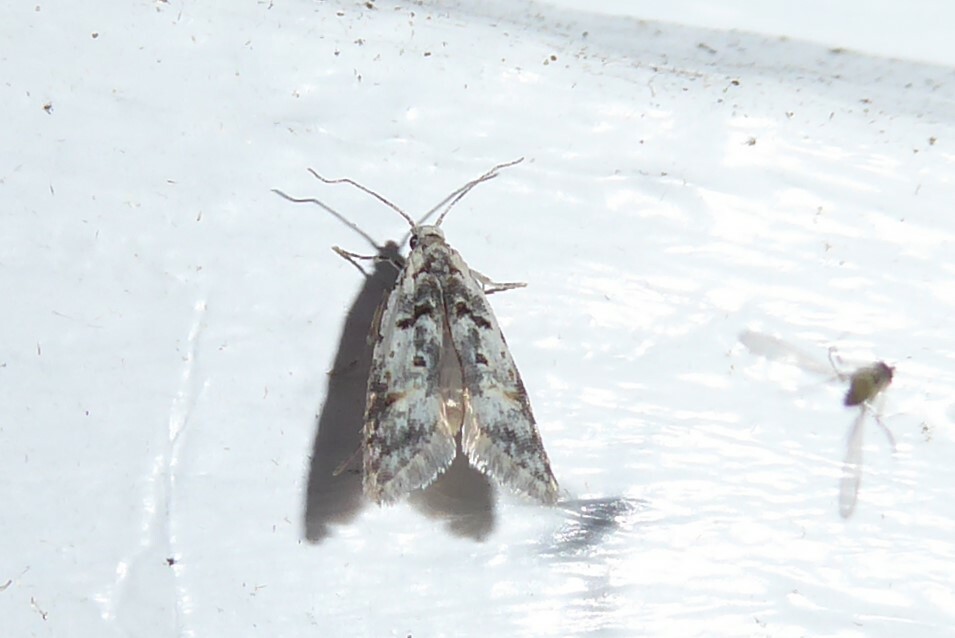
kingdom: Animalia
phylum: Arthropoda
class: Insecta
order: Lepidoptera
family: Carposinidae
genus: Carposina
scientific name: Carposina
